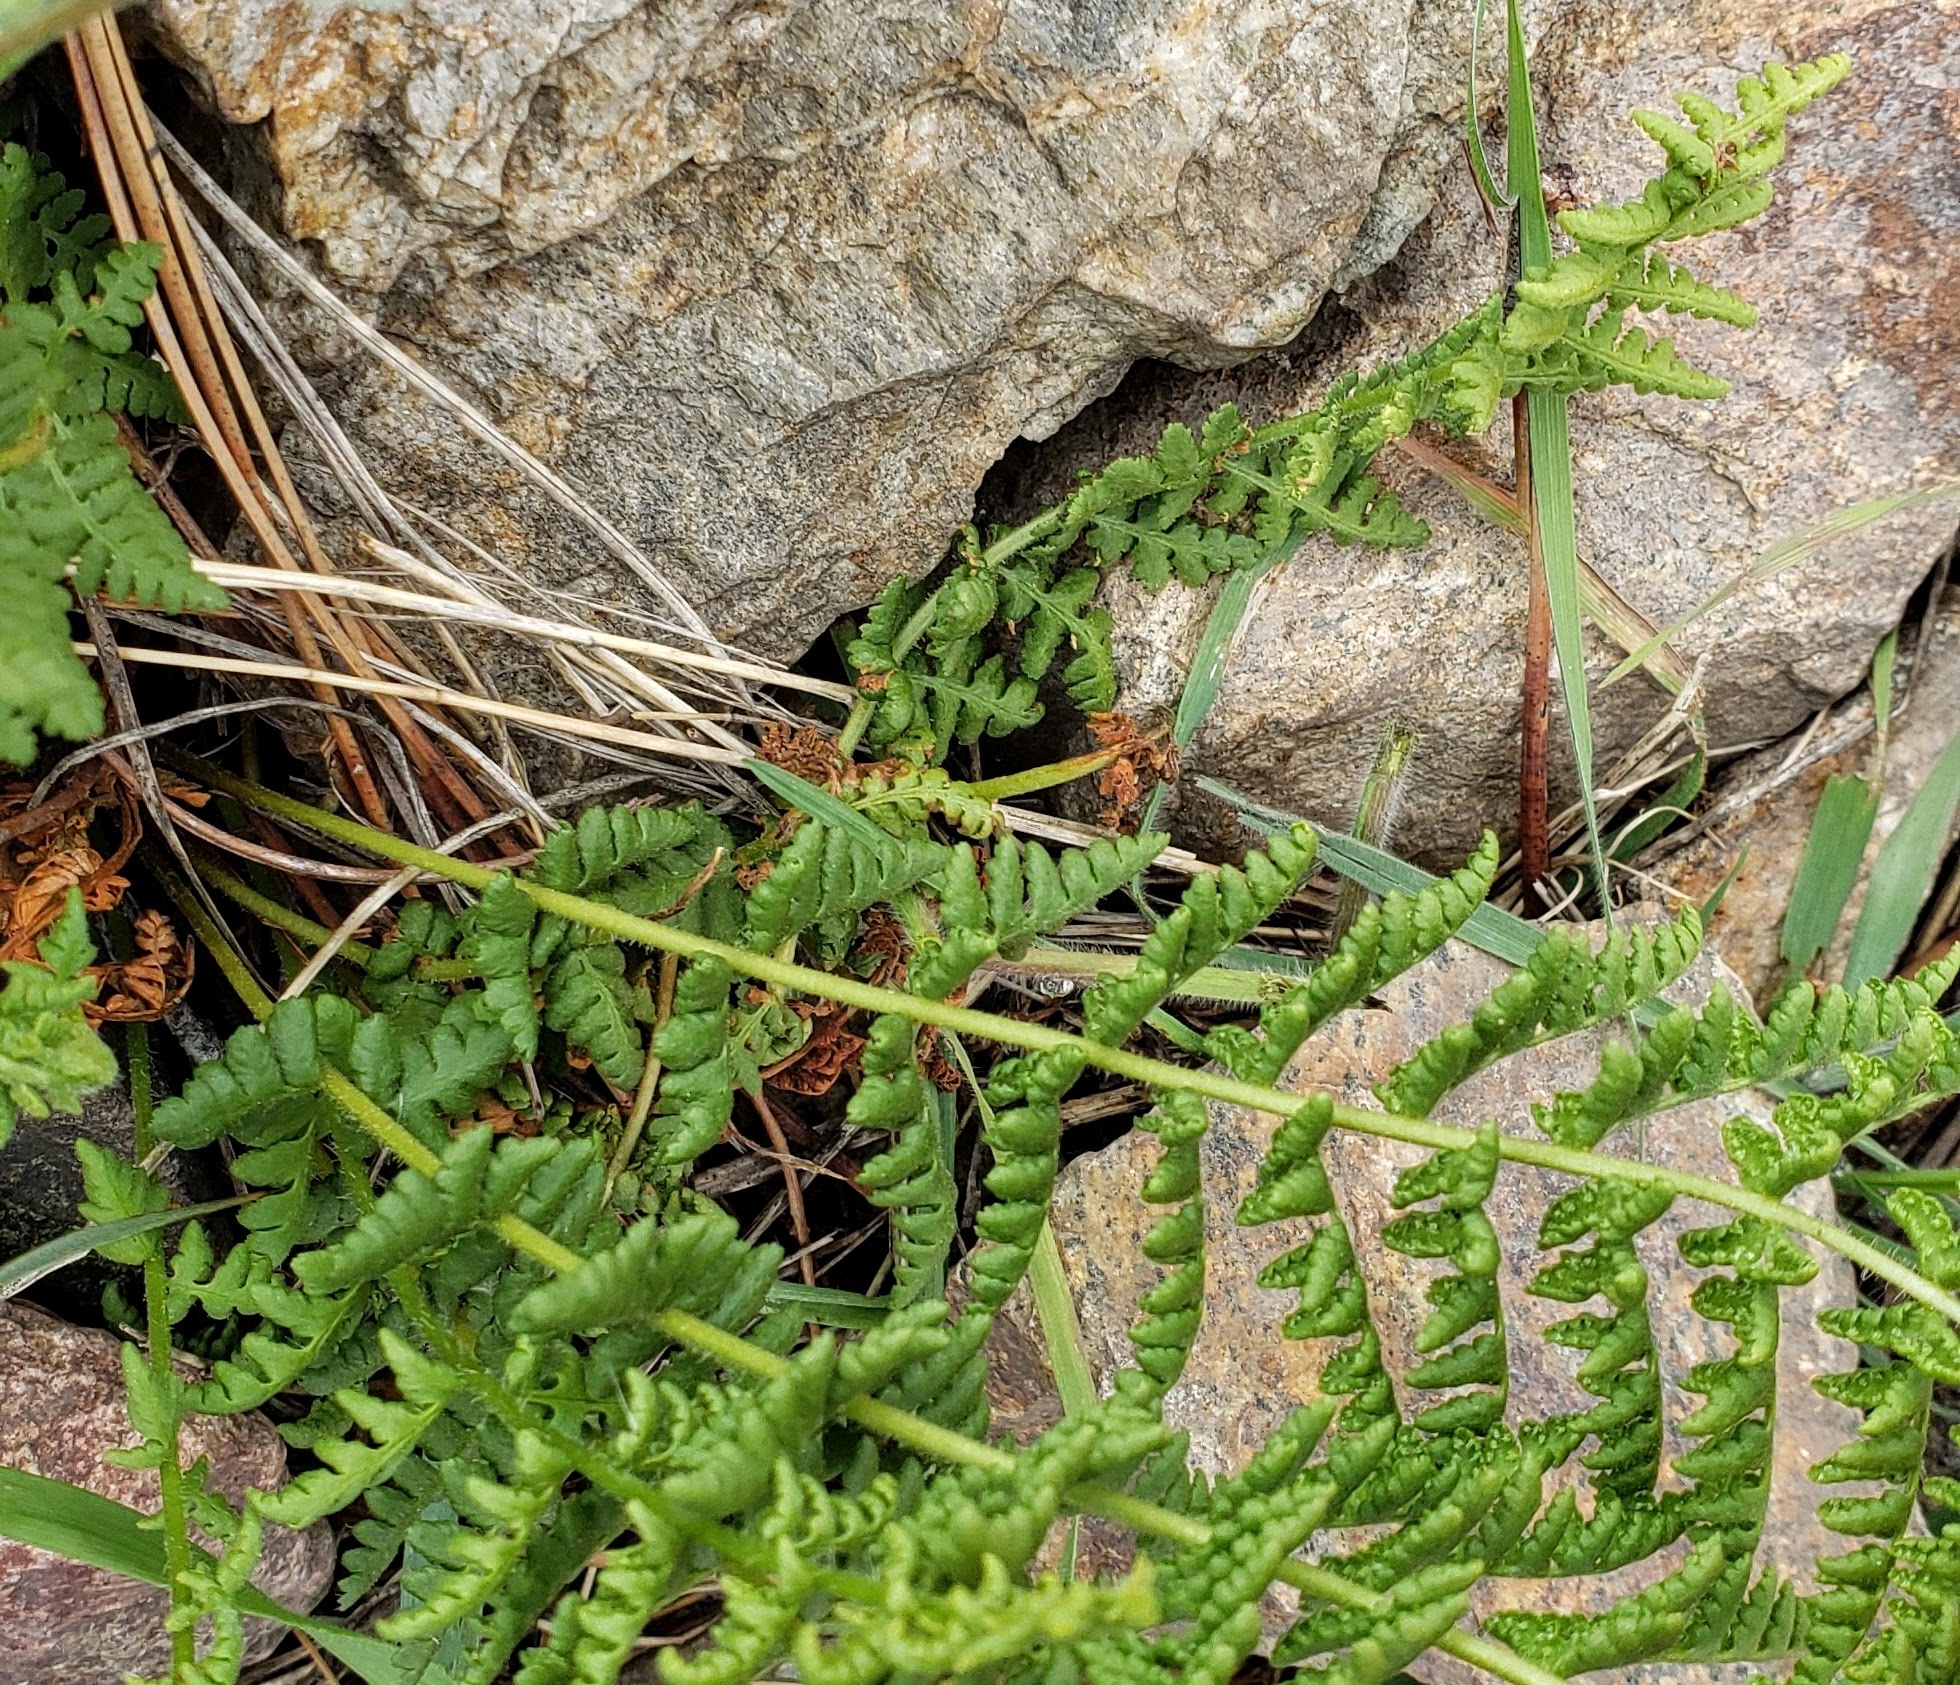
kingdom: Plantae
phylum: Tracheophyta
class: Polypodiopsida
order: Polypodiales
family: Woodsiaceae
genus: Physematium
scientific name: Physematium scopulinum
